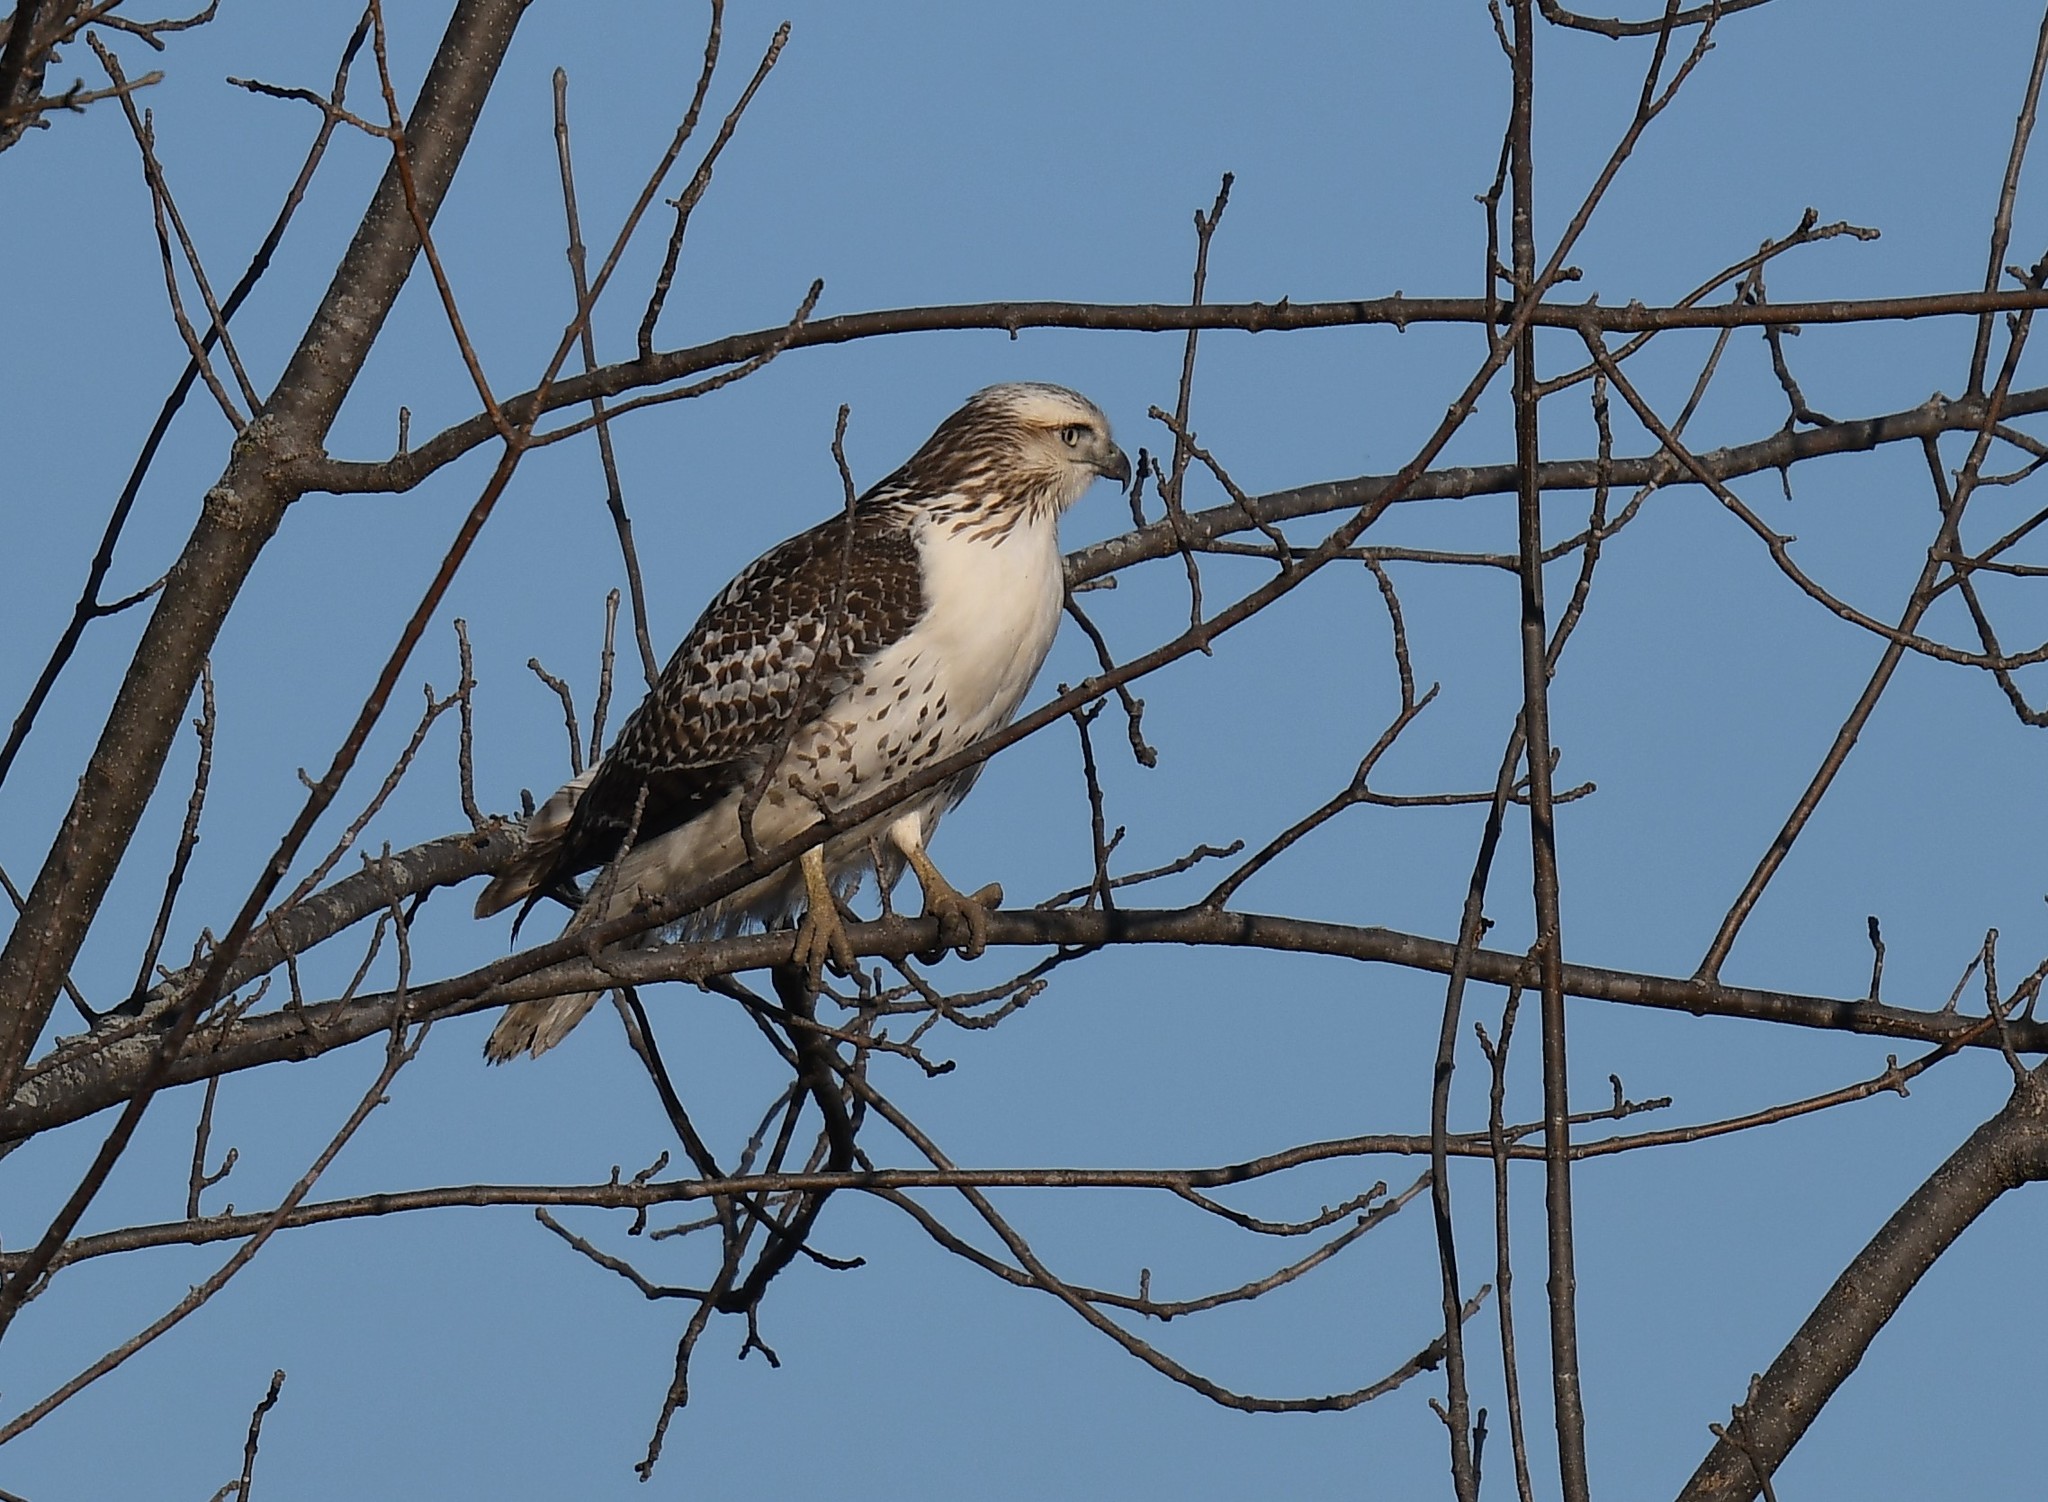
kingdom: Animalia
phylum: Chordata
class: Aves
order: Accipitriformes
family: Accipitridae
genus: Buteo
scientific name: Buteo jamaicensis
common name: Red-tailed hawk
